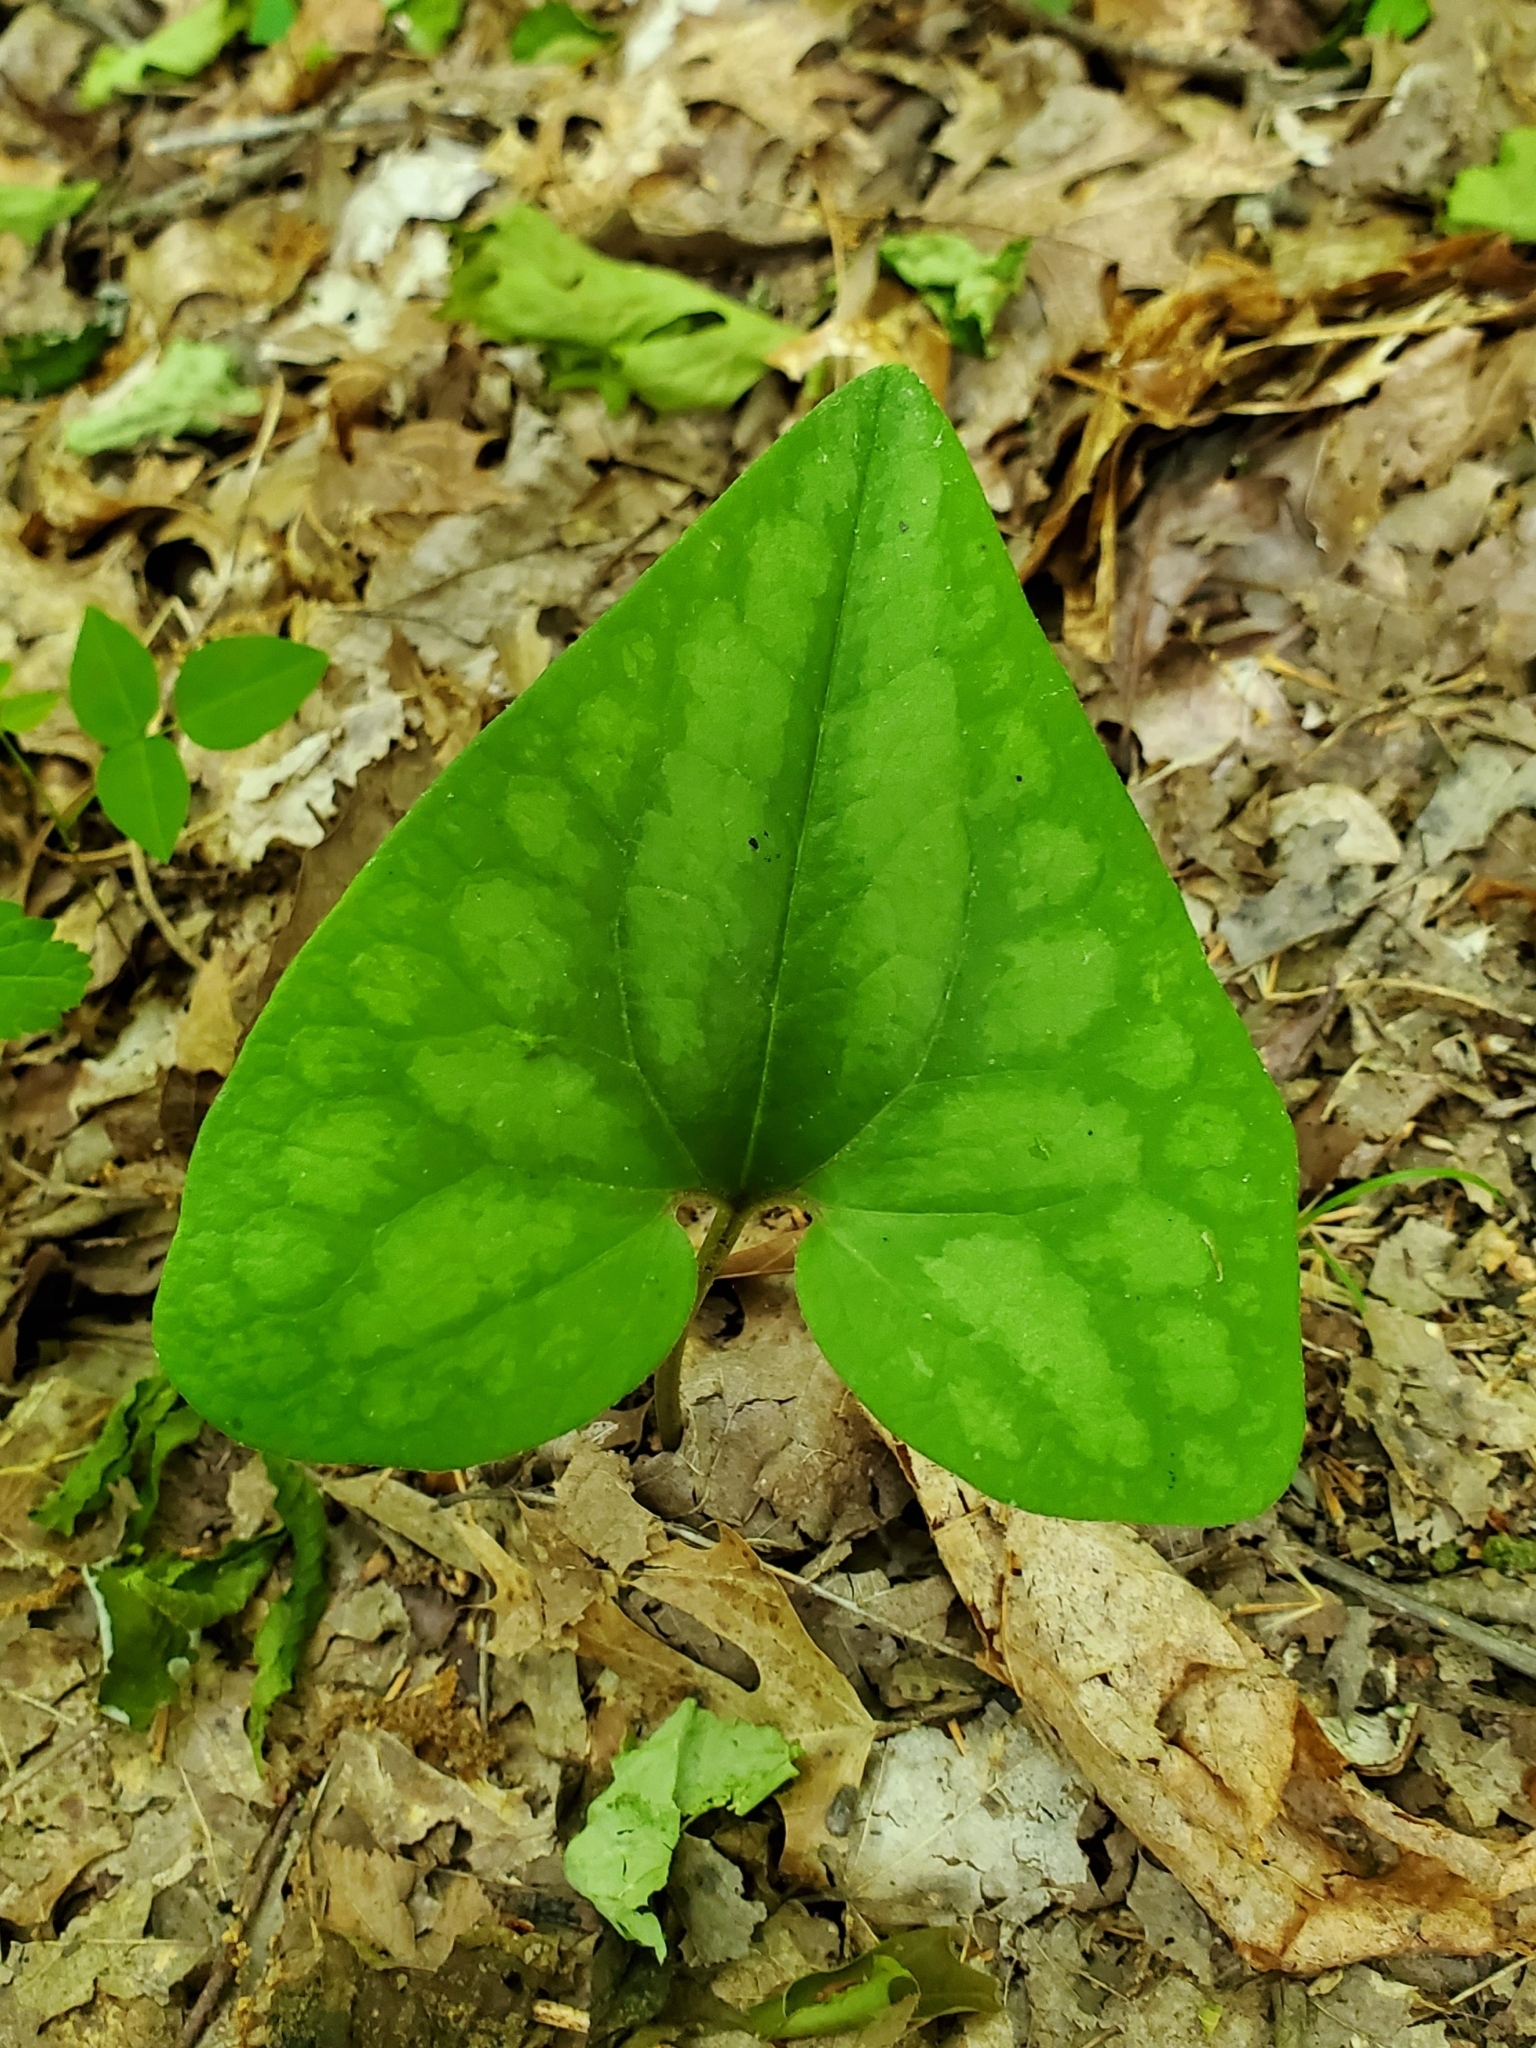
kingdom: Plantae
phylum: Tracheophyta
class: Magnoliopsida
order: Piperales
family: Aristolochiaceae
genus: Hexastylis
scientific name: Hexastylis arifolia
